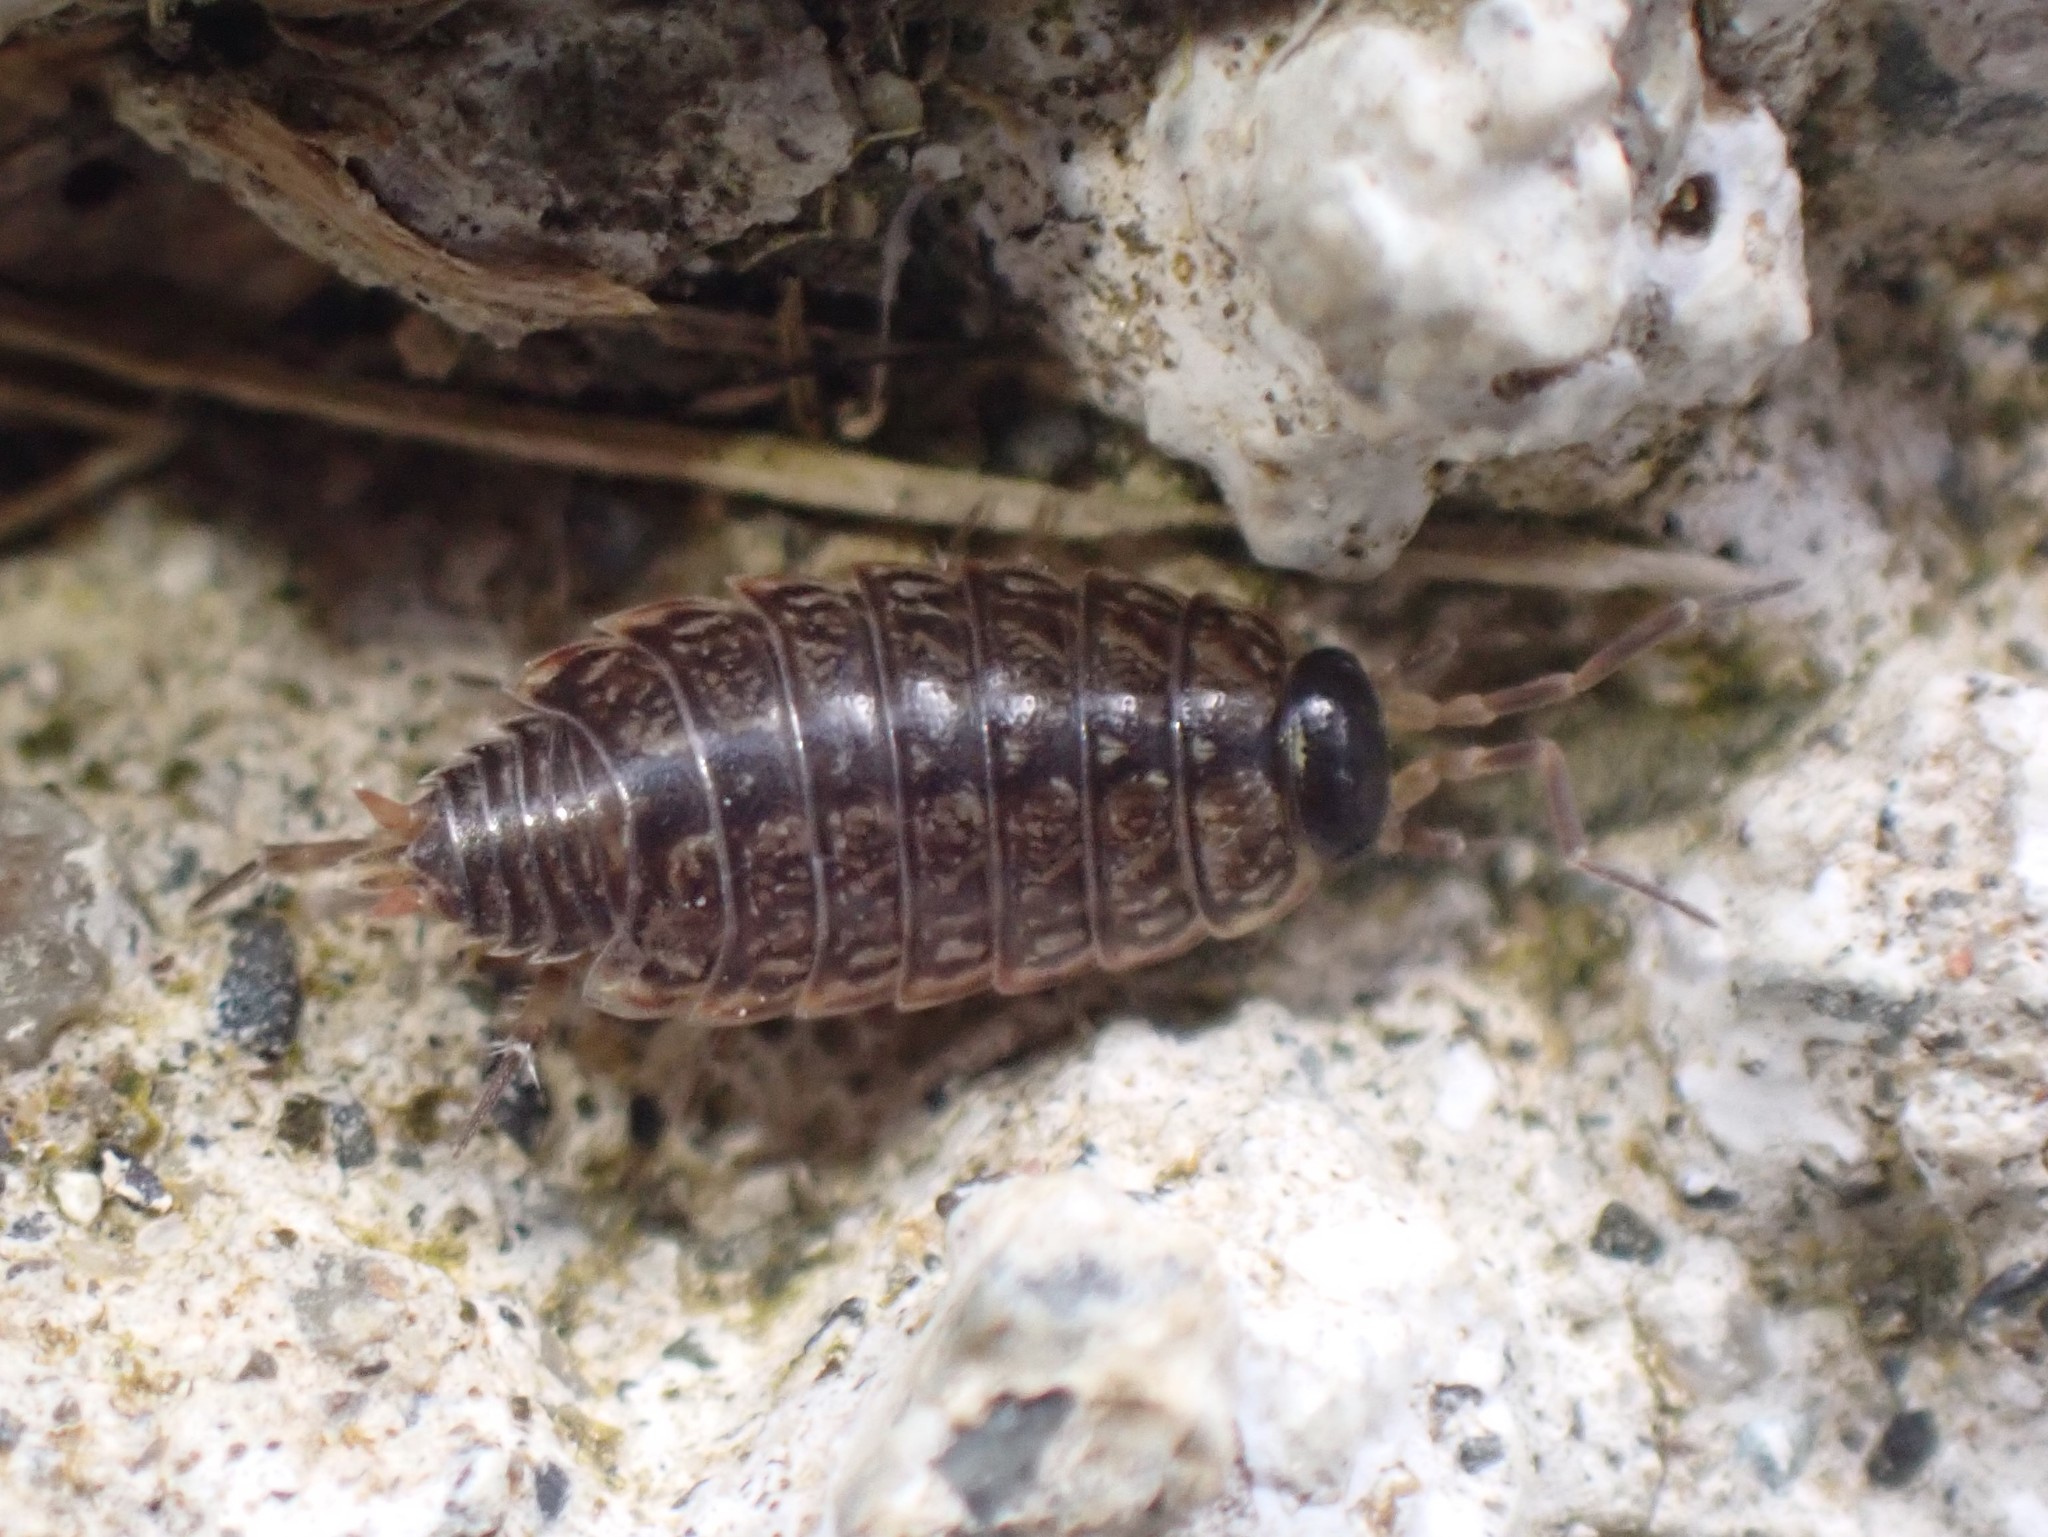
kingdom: Animalia
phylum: Arthropoda
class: Malacostraca
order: Isopoda
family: Philosciidae
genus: Philoscia
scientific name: Philoscia muscorum
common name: Common striped woodlouse
